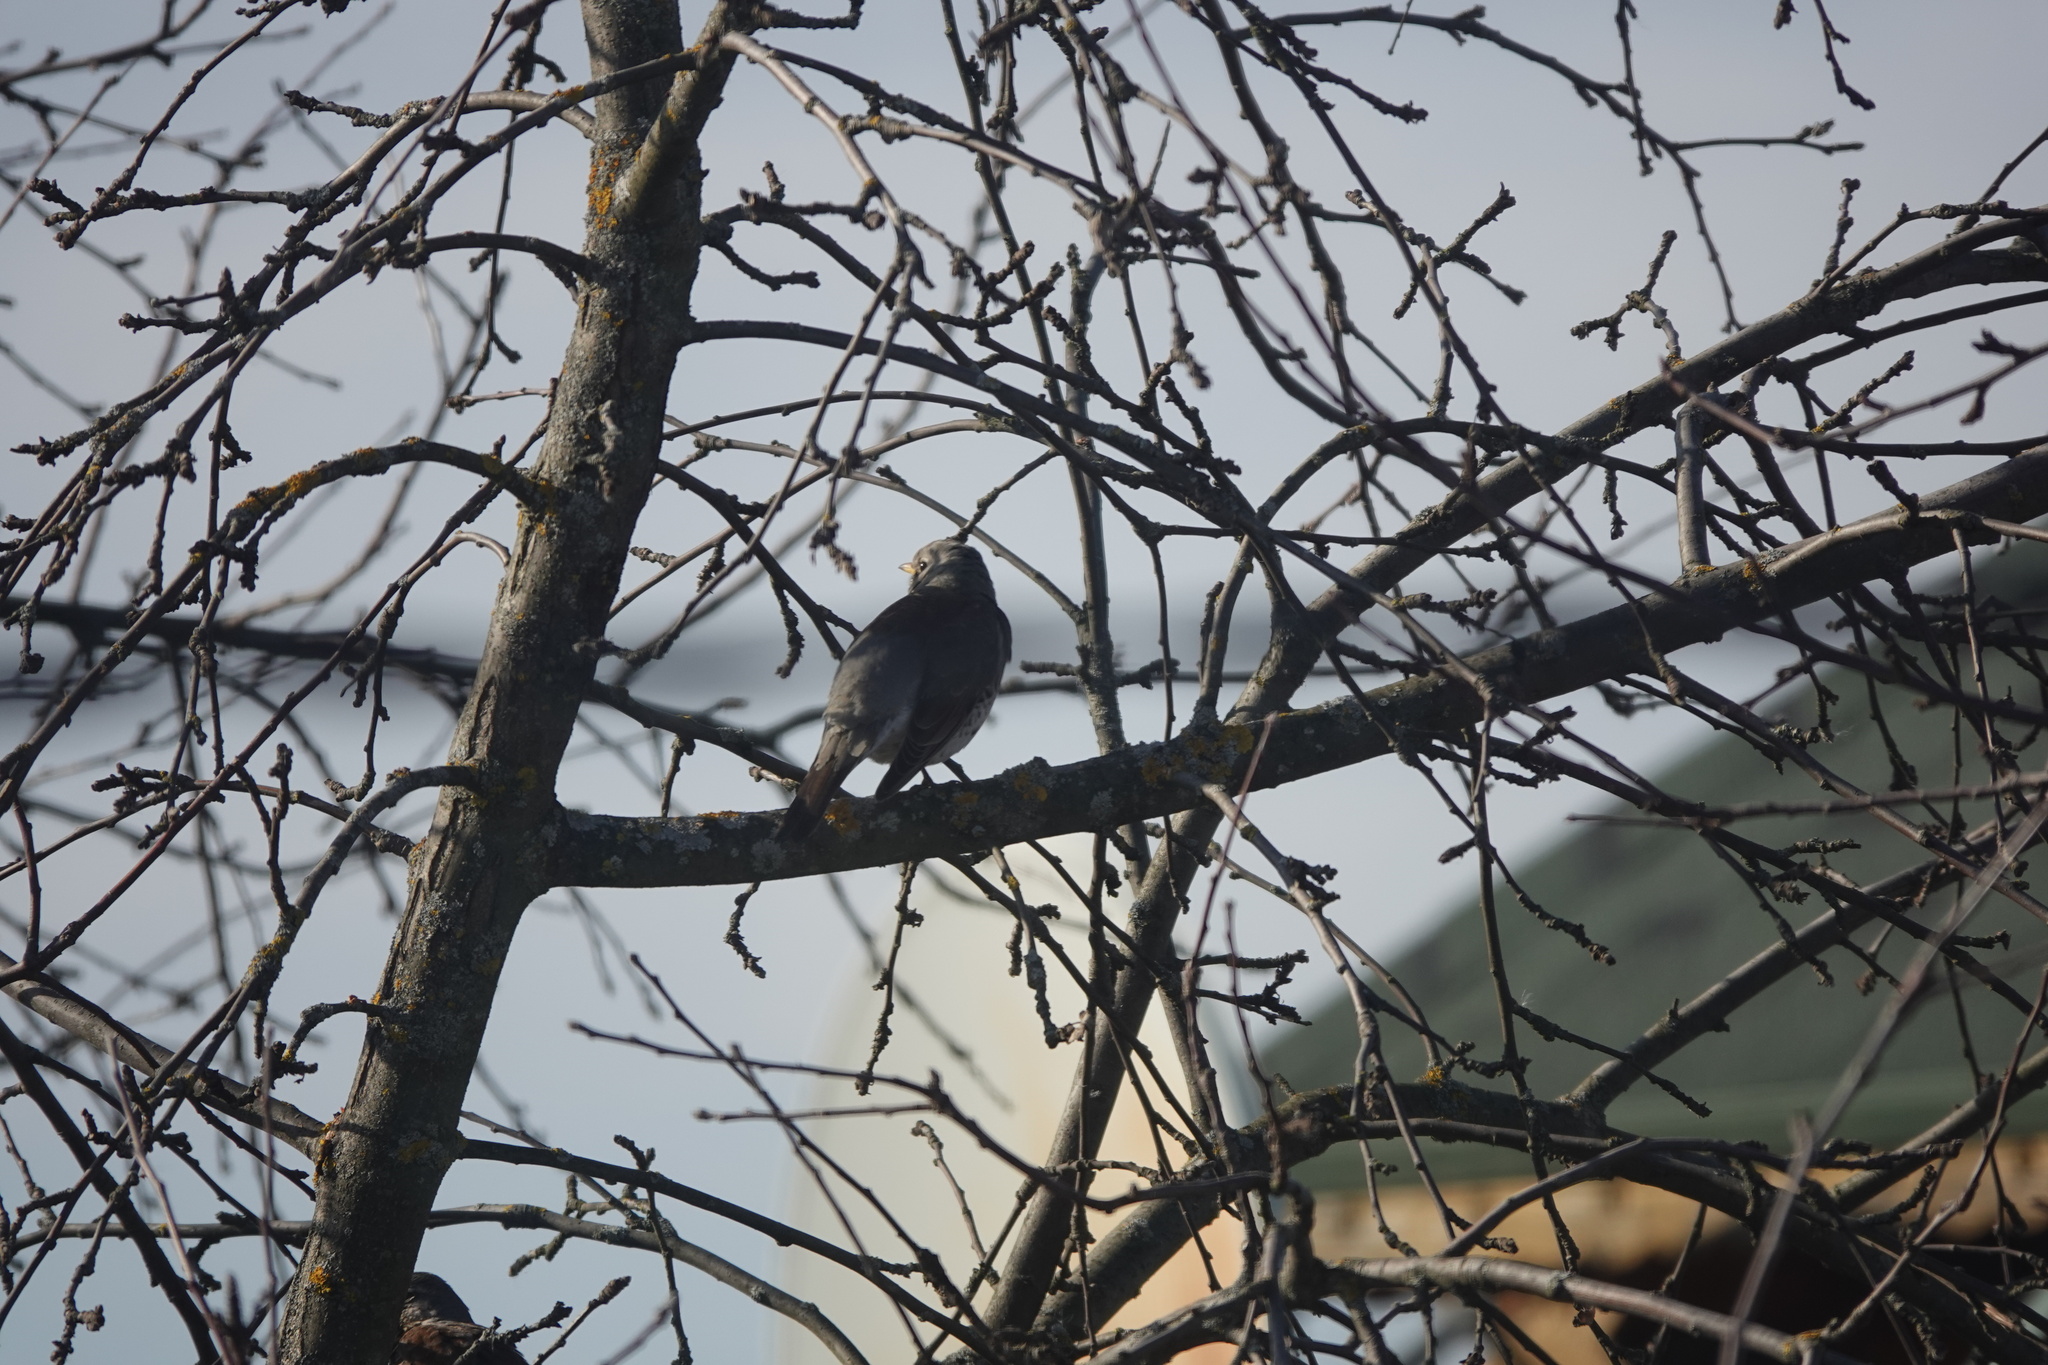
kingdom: Animalia
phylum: Chordata
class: Aves
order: Passeriformes
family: Turdidae
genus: Turdus
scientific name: Turdus pilaris
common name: Fieldfare
